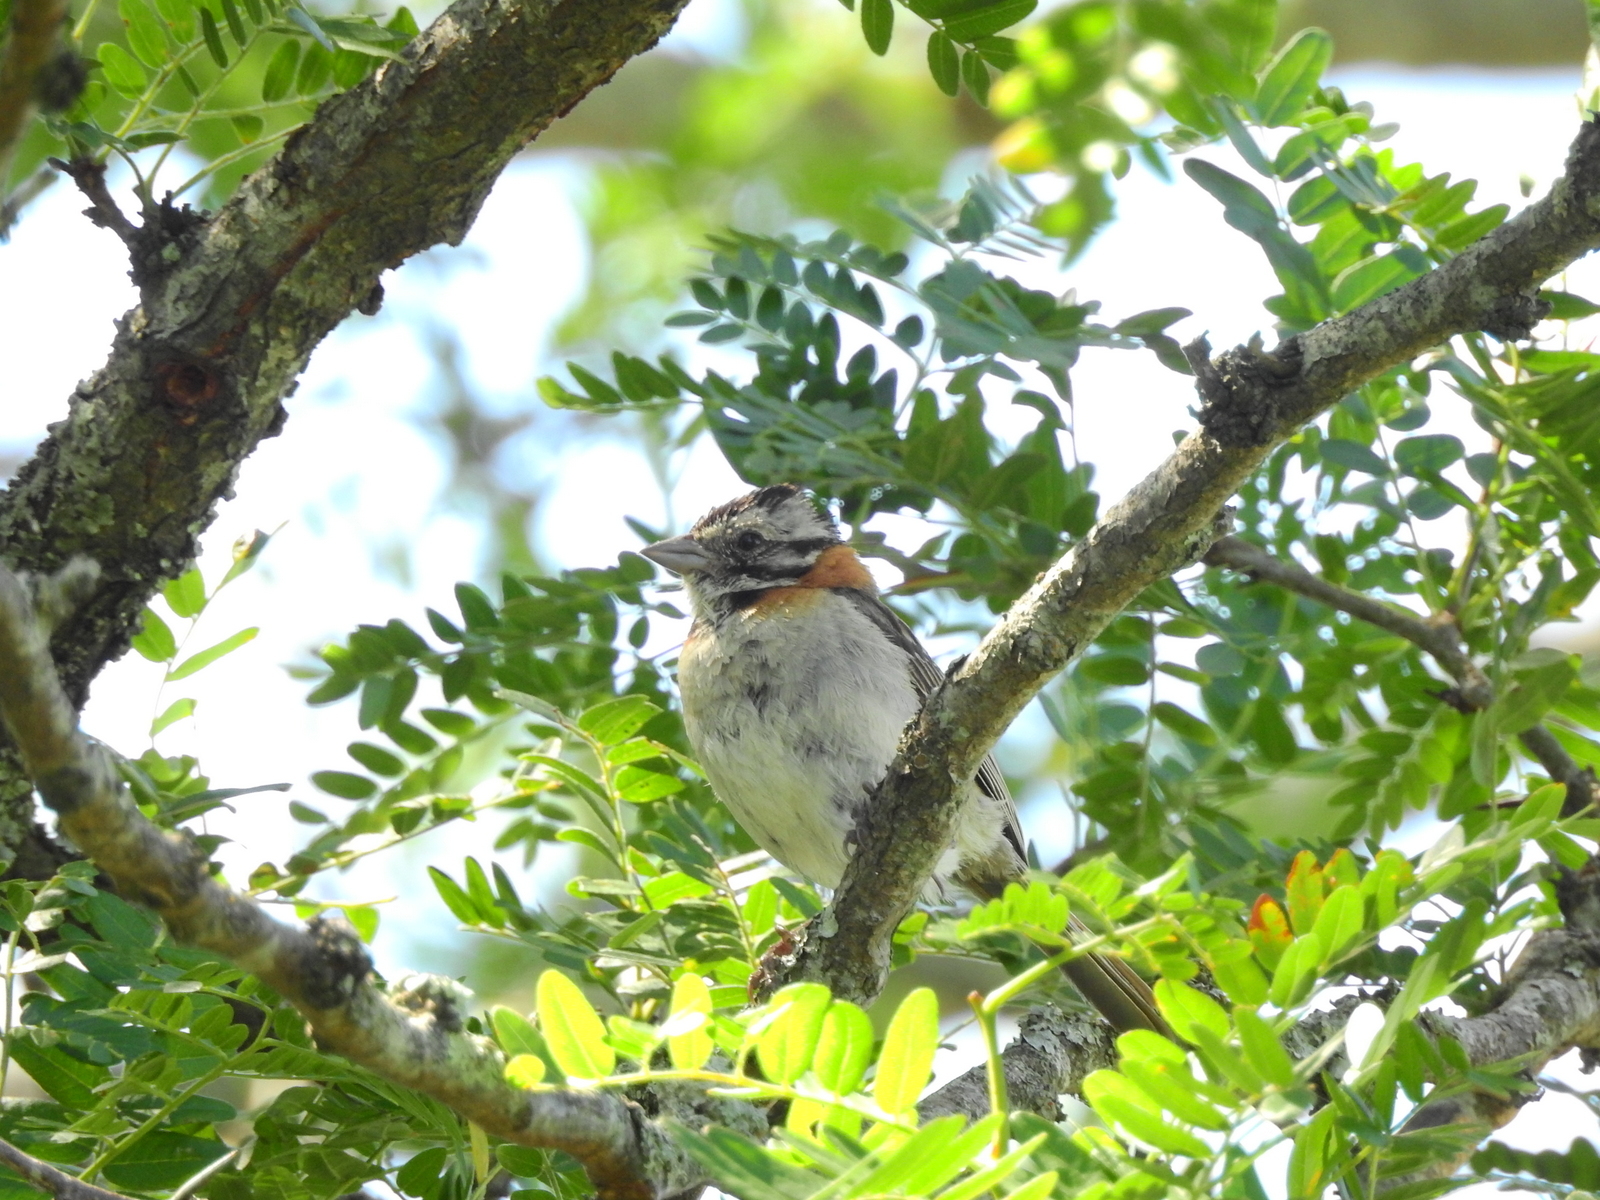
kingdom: Animalia
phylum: Chordata
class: Aves
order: Passeriformes
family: Passerellidae
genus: Zonotrichia
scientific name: Zonotrichia capensis
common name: Rufous-collared sparrow
